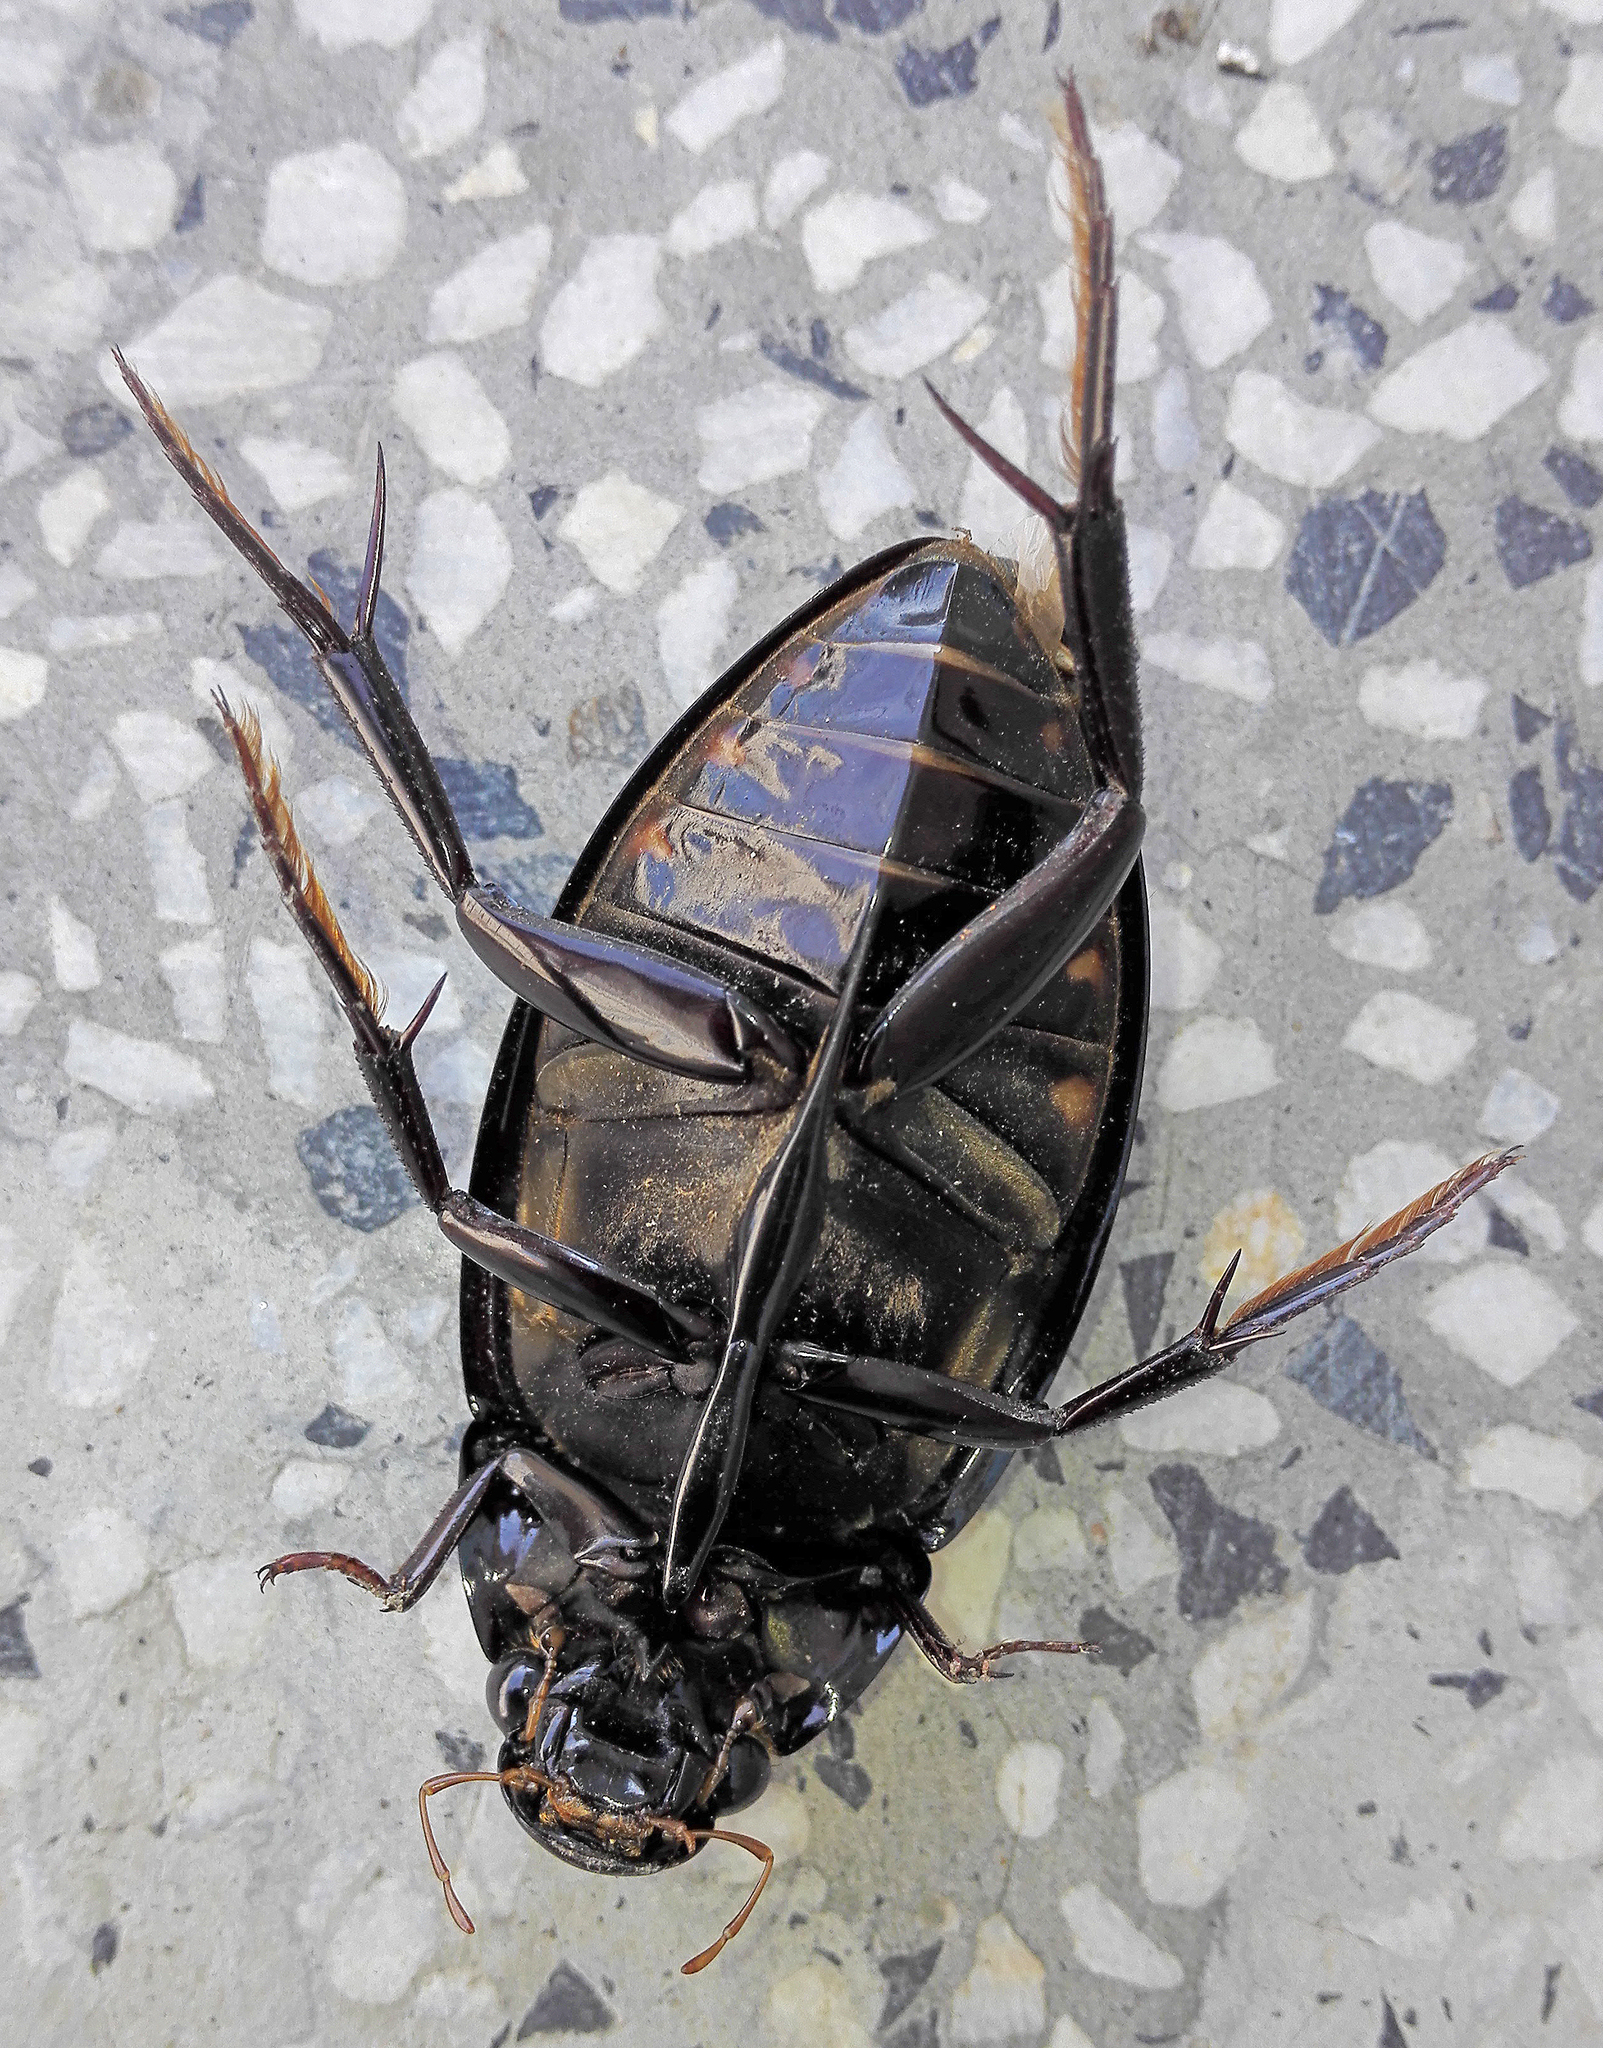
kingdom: Animalia
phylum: Arthropoda
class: Insecta
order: Coleoptera
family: Hydrophilidae
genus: Hydrophilus
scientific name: Hydrophilus piceus
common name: Great silver water beetle
